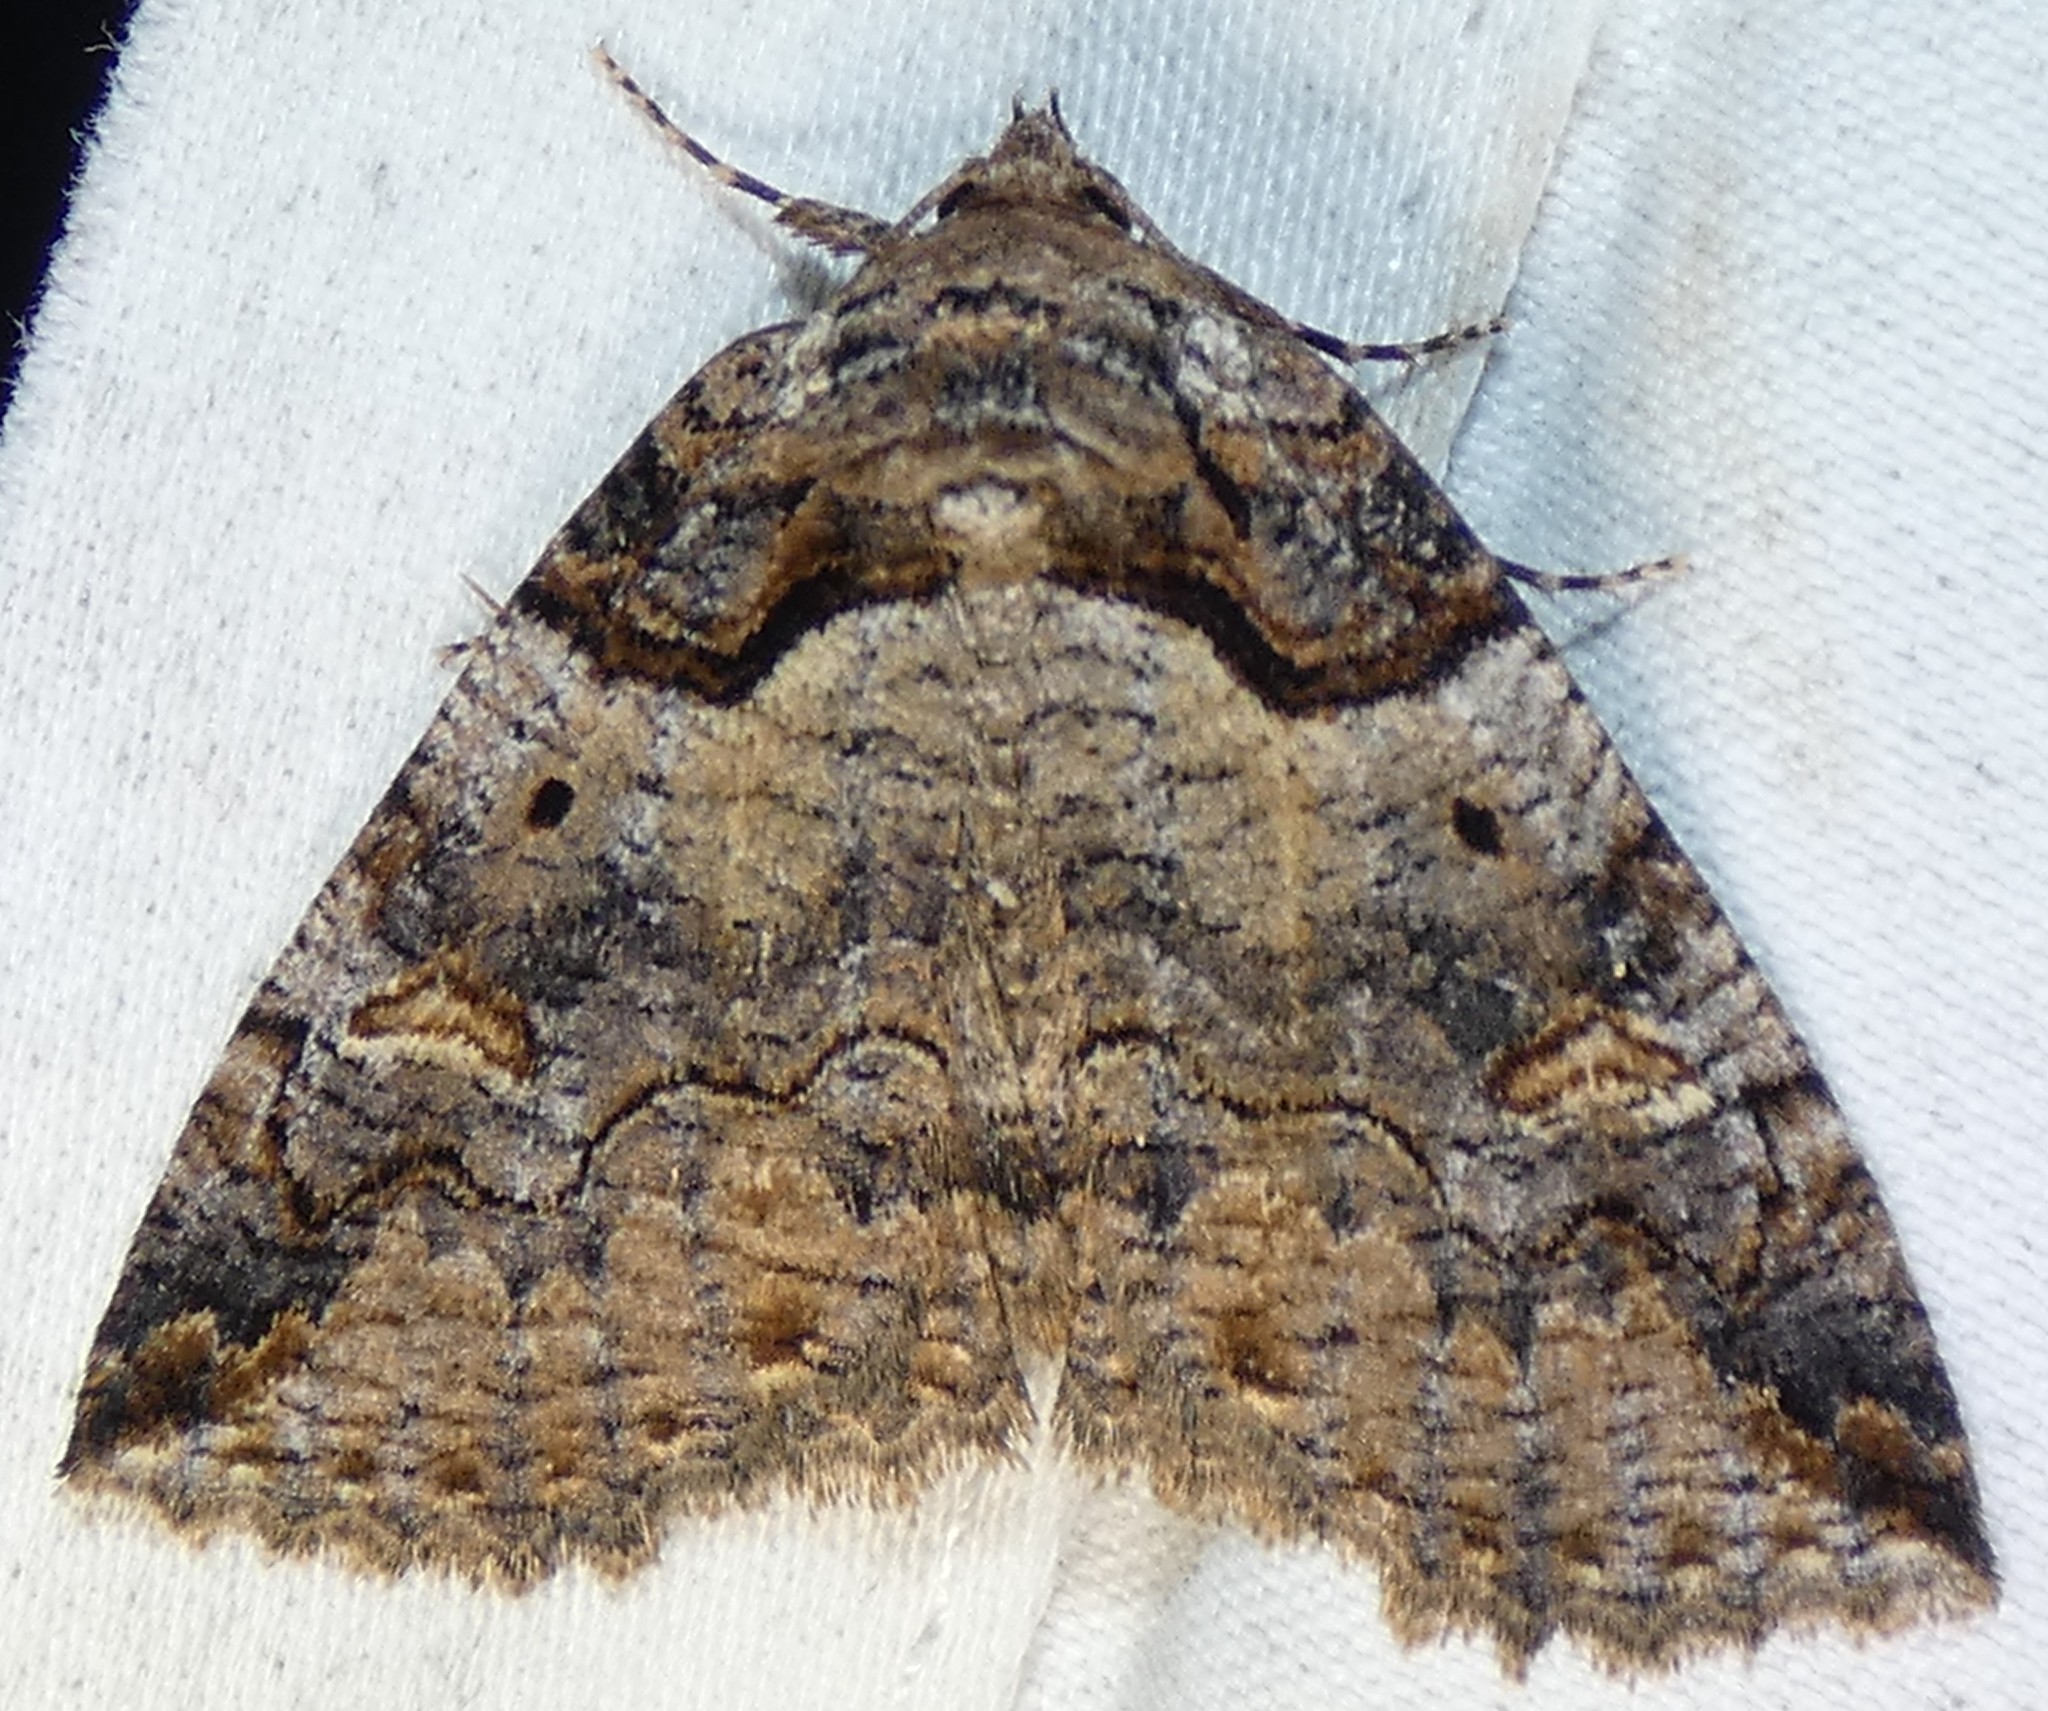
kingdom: Animalia
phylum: Arthropoda
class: Insecta
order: Lepidoptera
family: Erebidae
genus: Zale
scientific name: Zale intenta
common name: Intent zale moth
